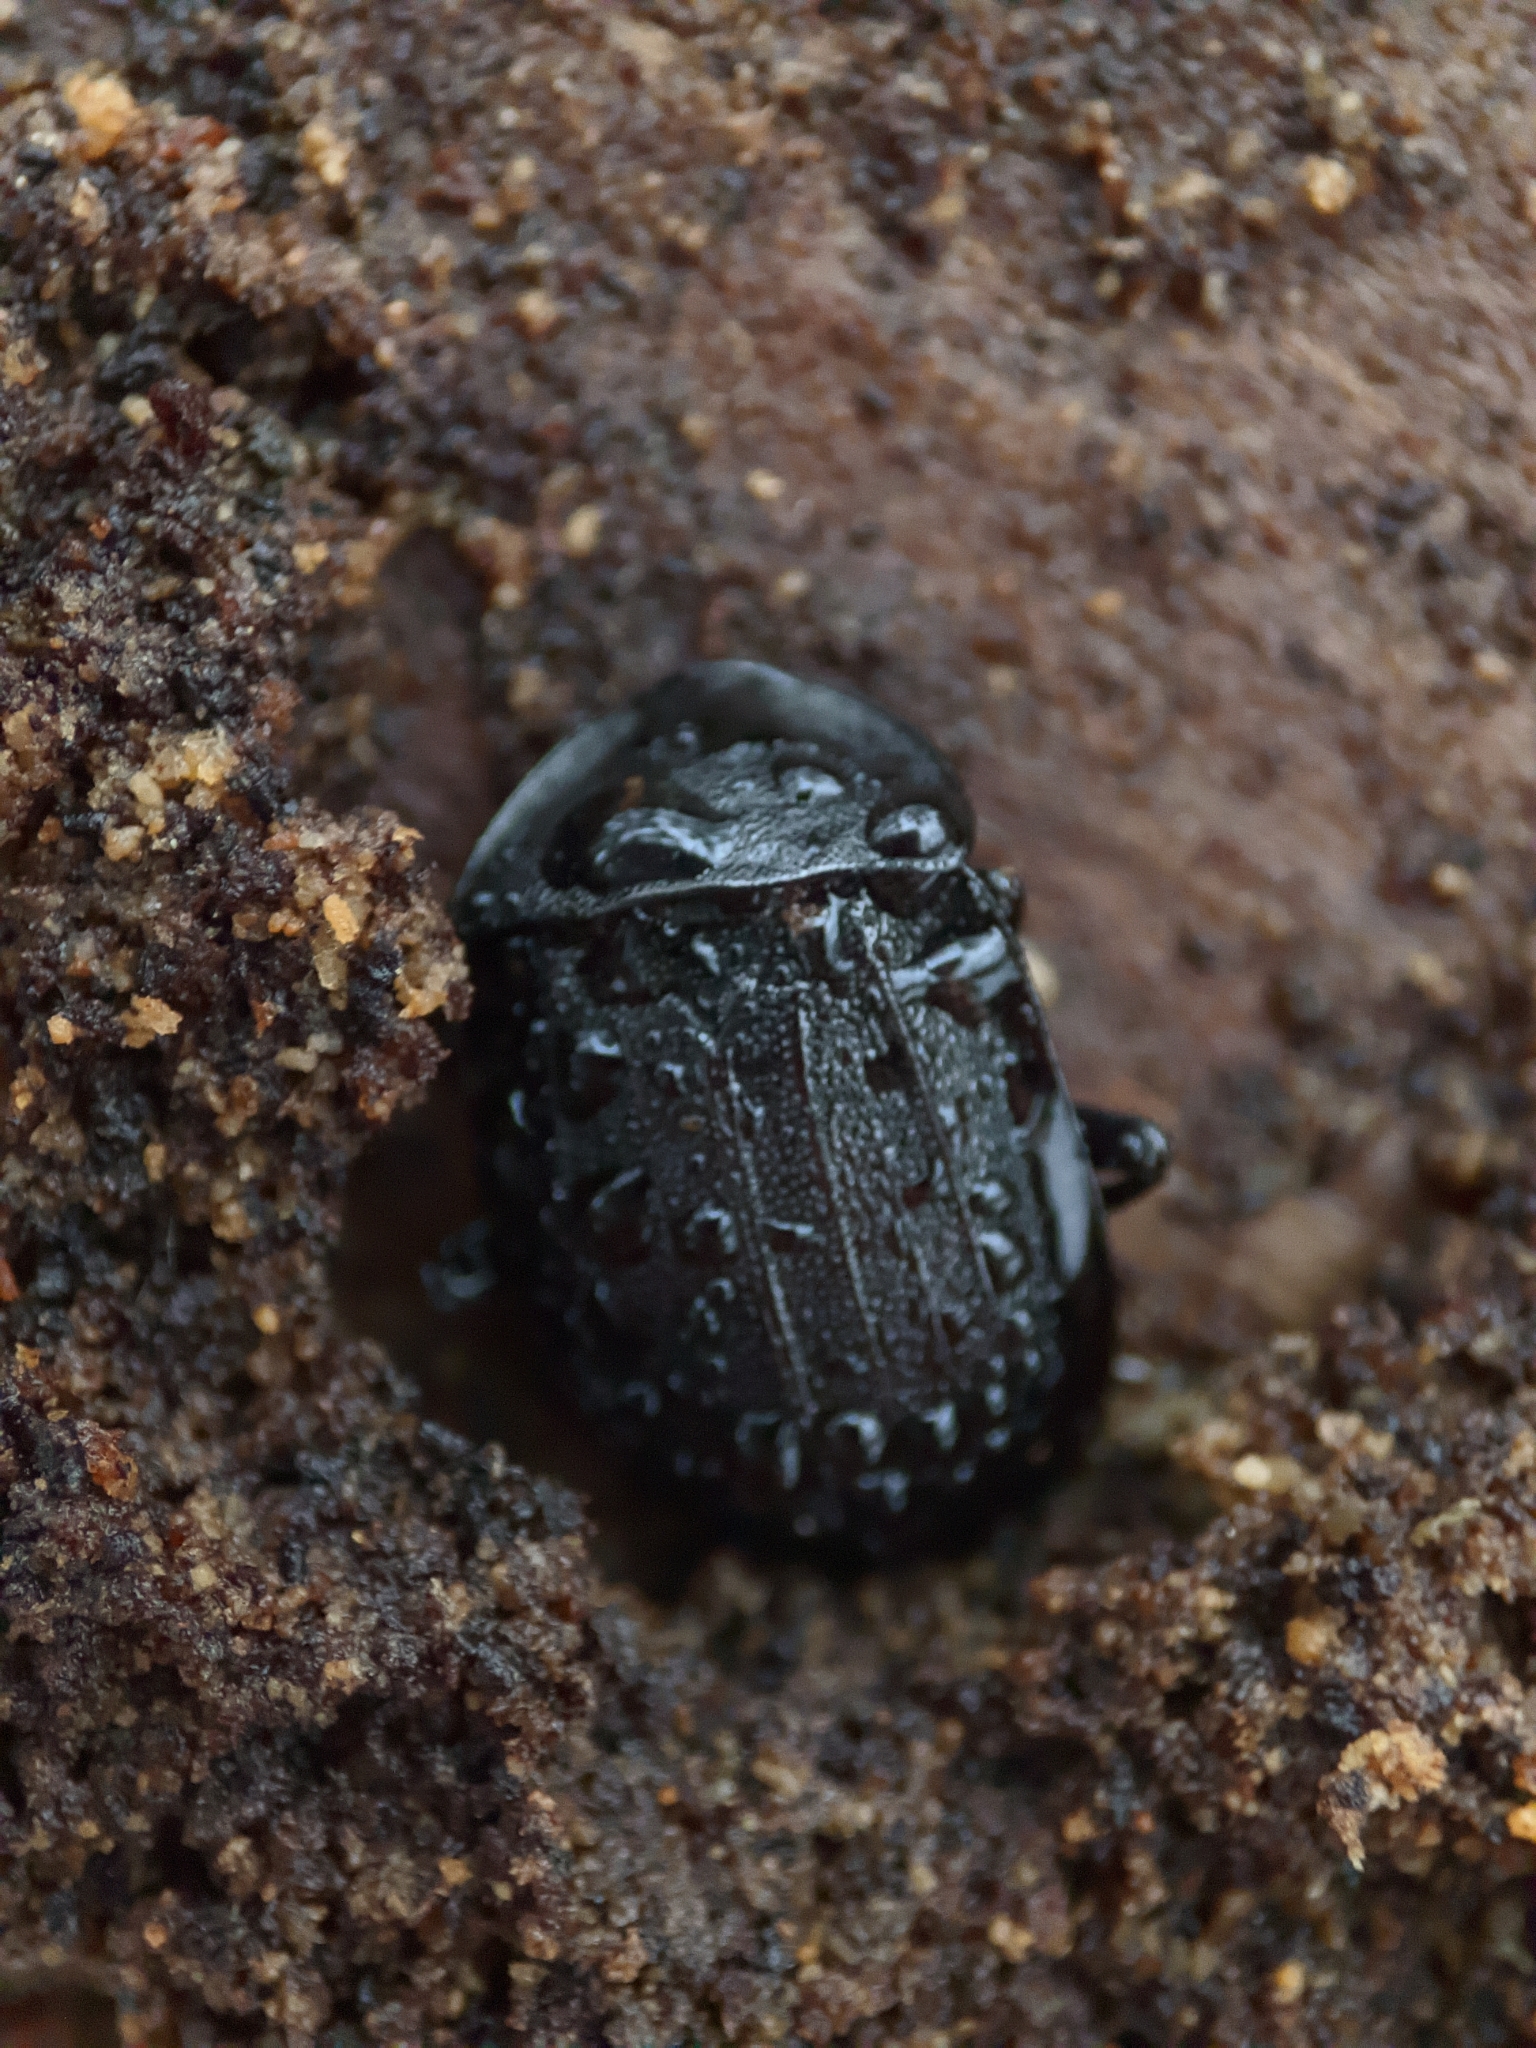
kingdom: Animalia
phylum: Arthropoda
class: Insecta
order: Coleoptera
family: Staphylinidae
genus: Silpha
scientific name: Silpha atrata
